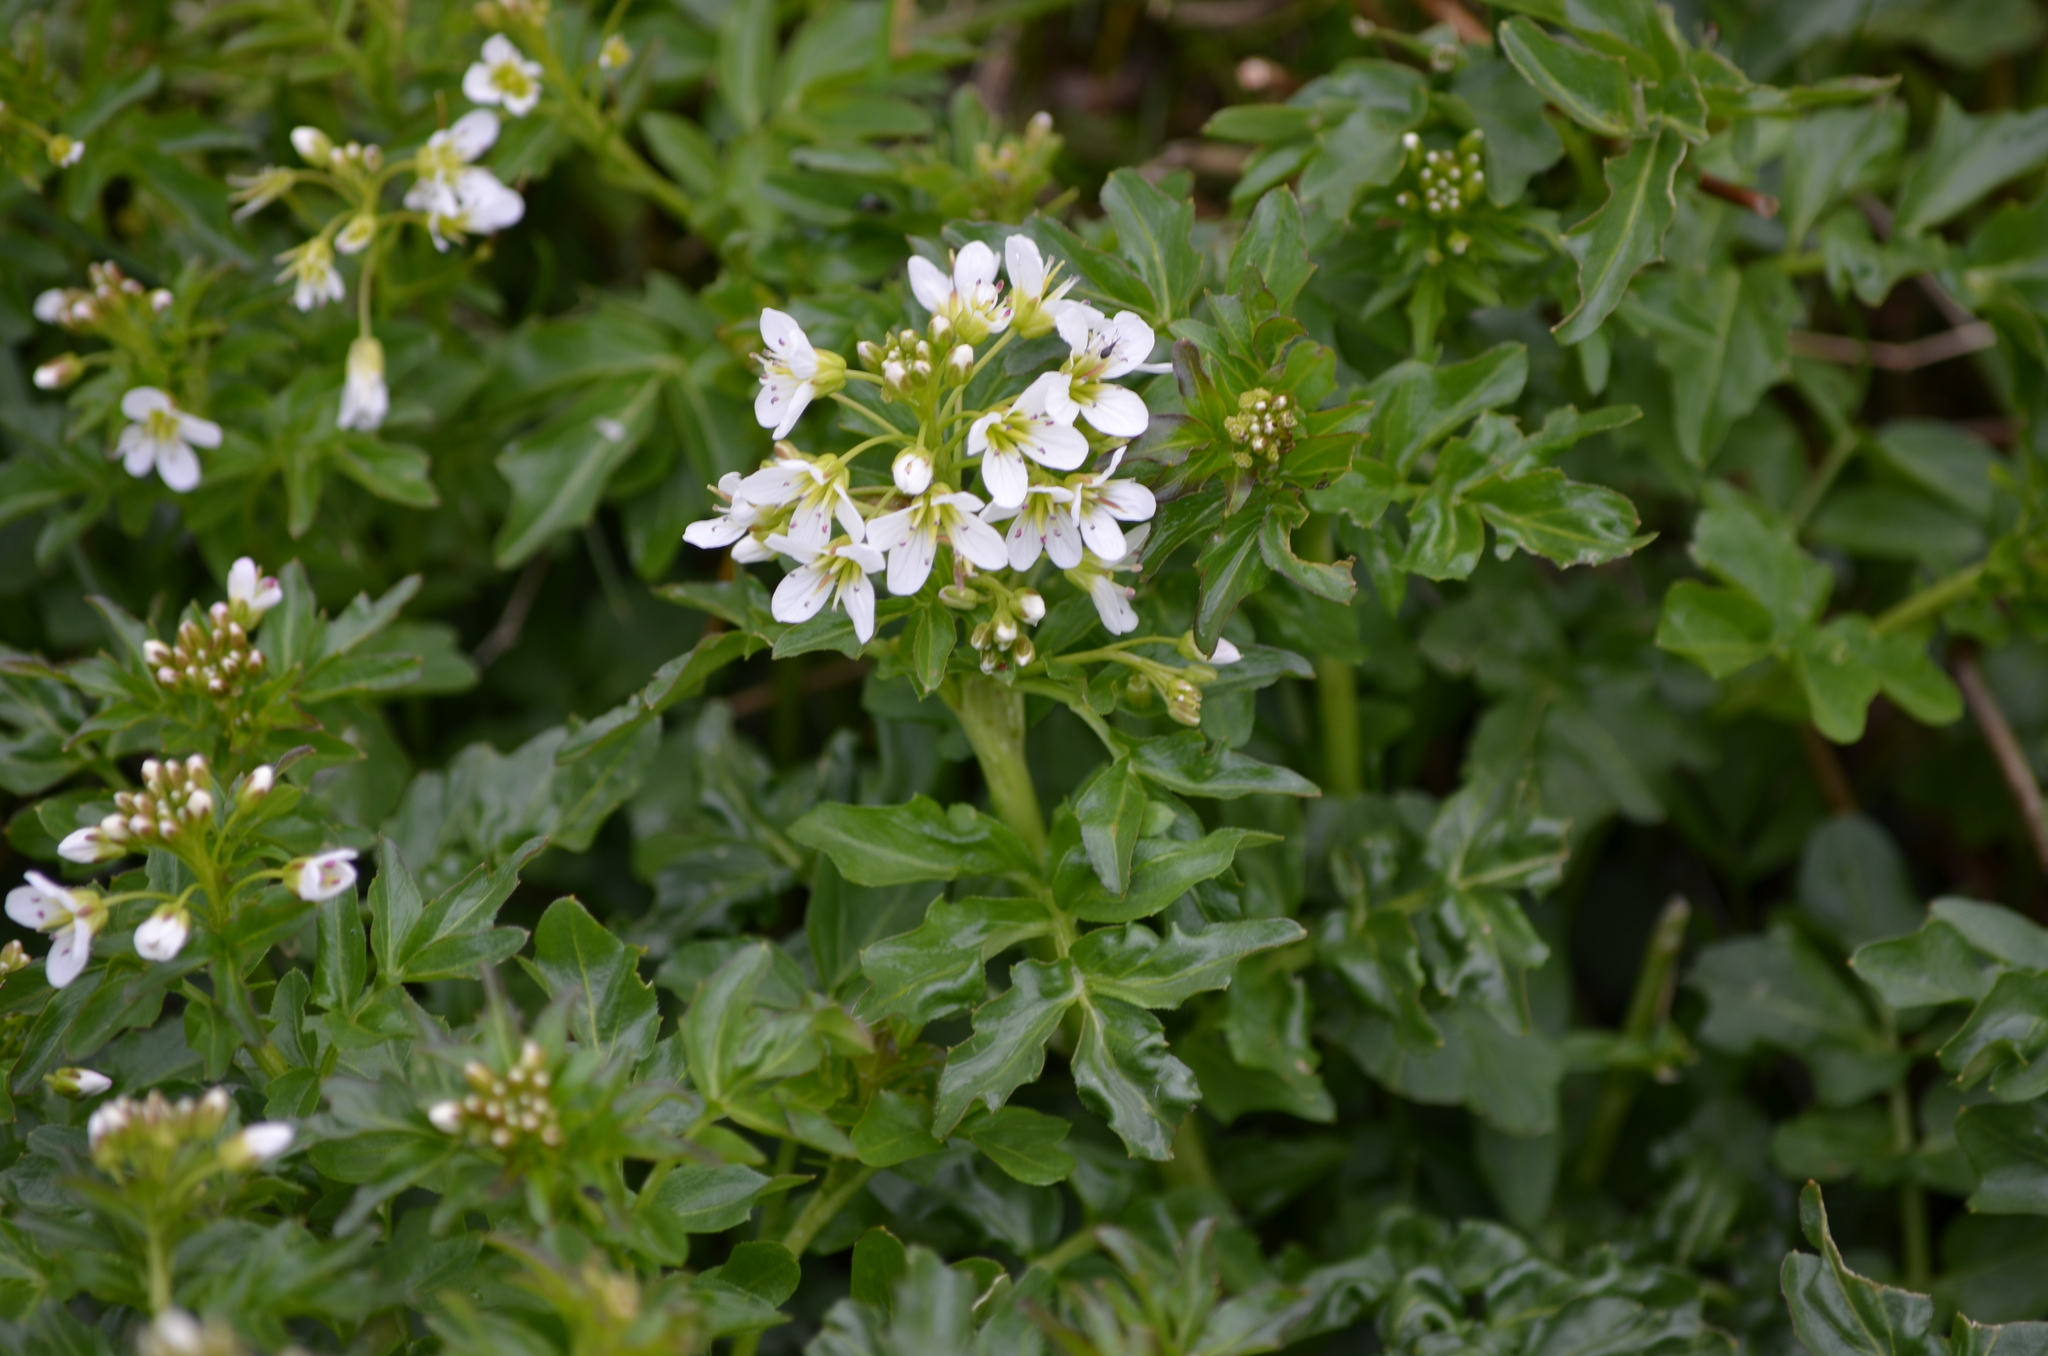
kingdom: Plantae
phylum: Tracheophyta
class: Magnoliopsida
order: Brassicales
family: Brassicaceae
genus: Cardamine
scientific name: Cardamine amara
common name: Large bitter-cress
